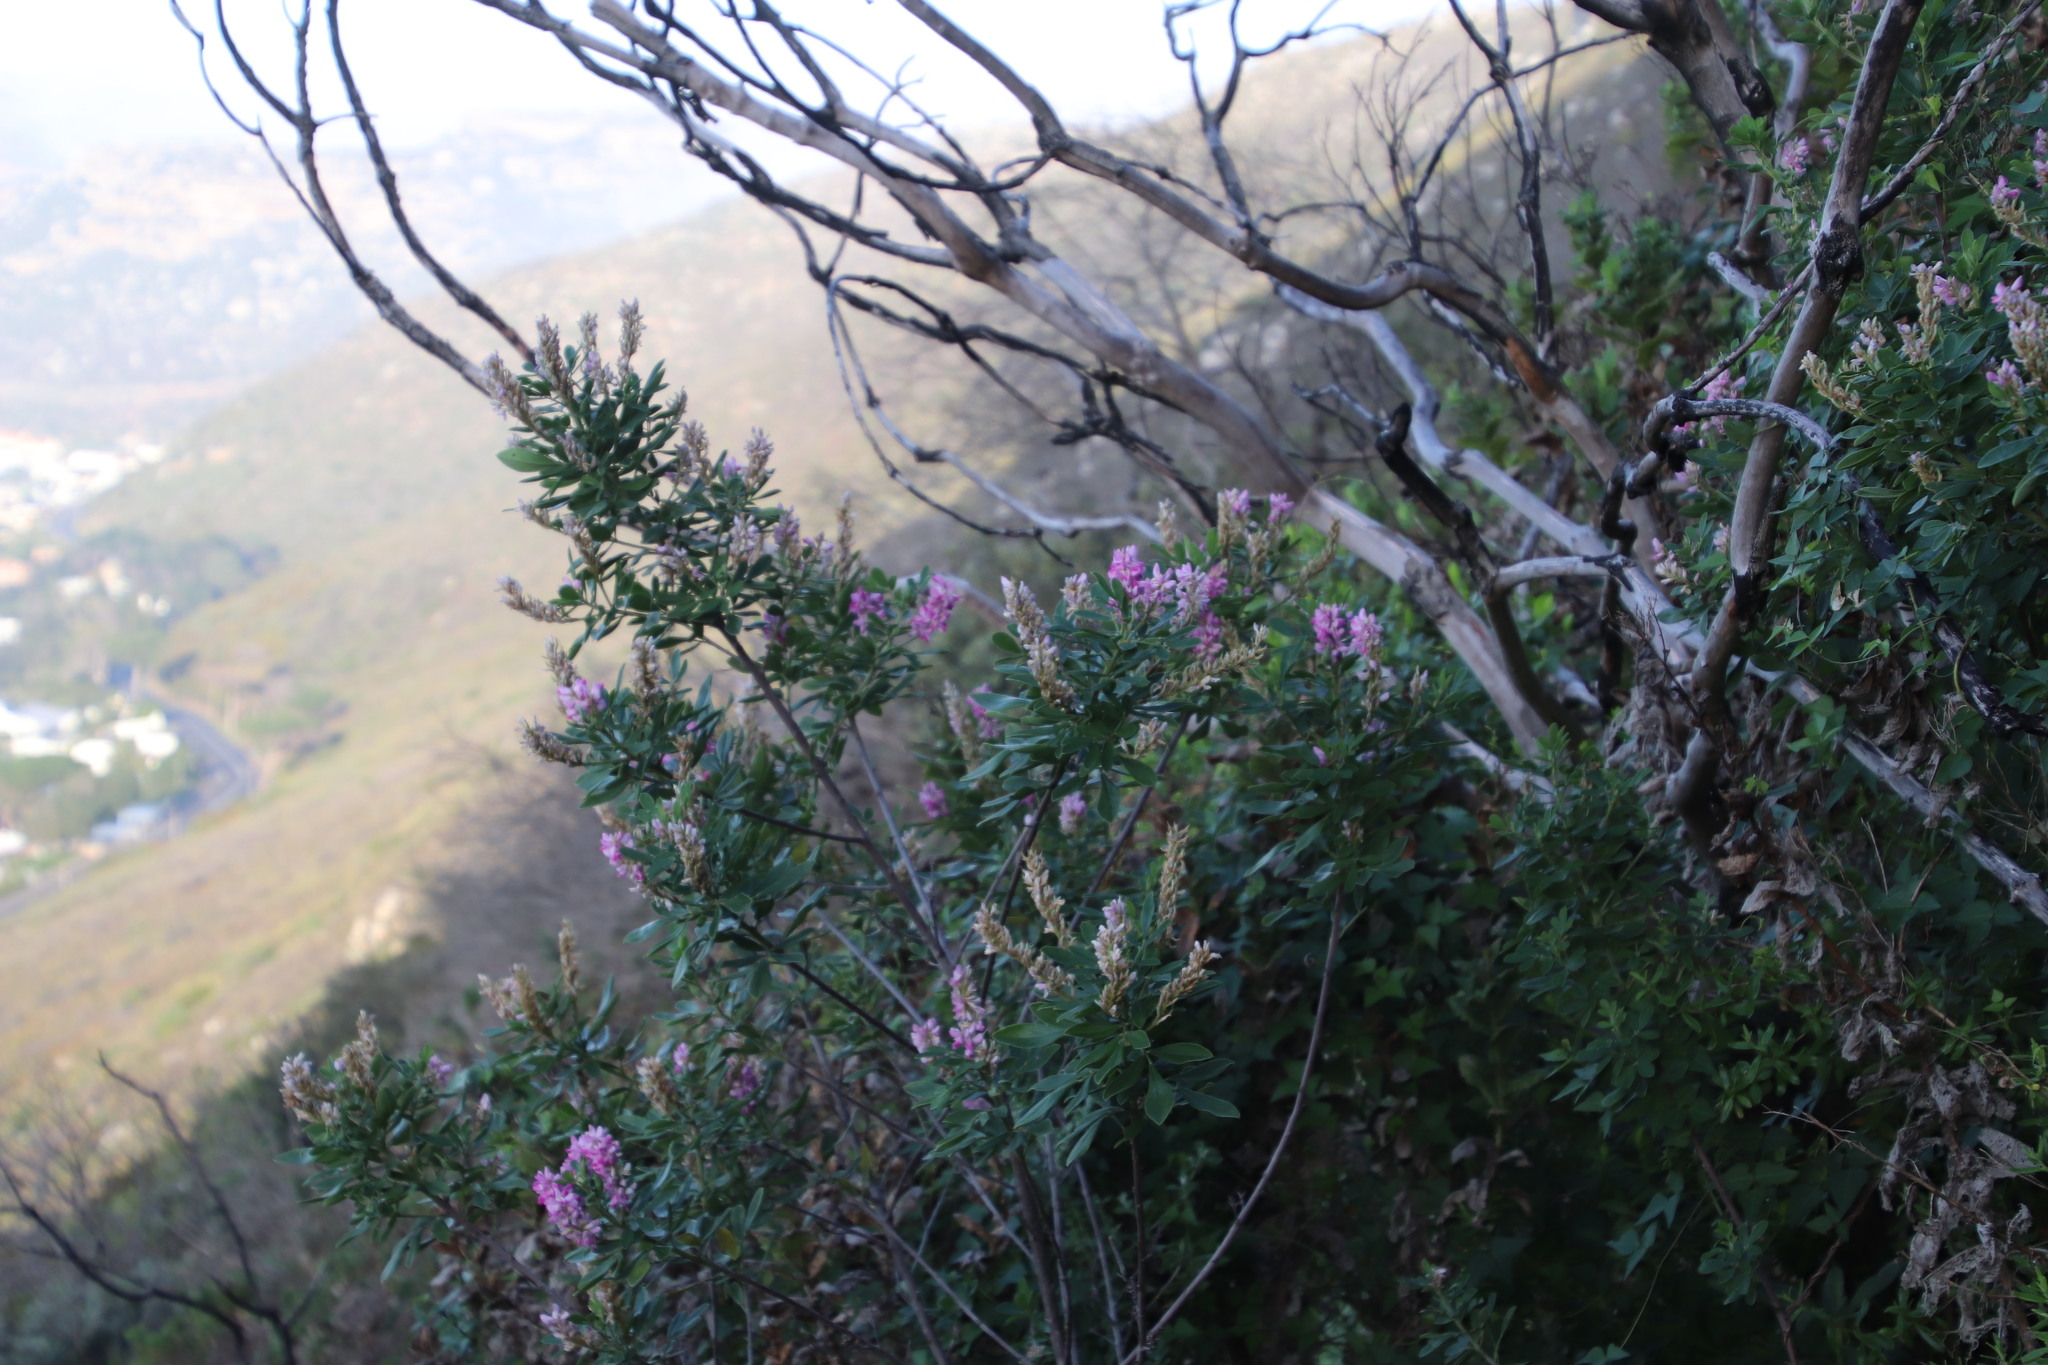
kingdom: Plantae
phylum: Tracheophyta
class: Magnoliopsida
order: Fabales
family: Fabaceae
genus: Indigofera
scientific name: Indigofera cytisoides
